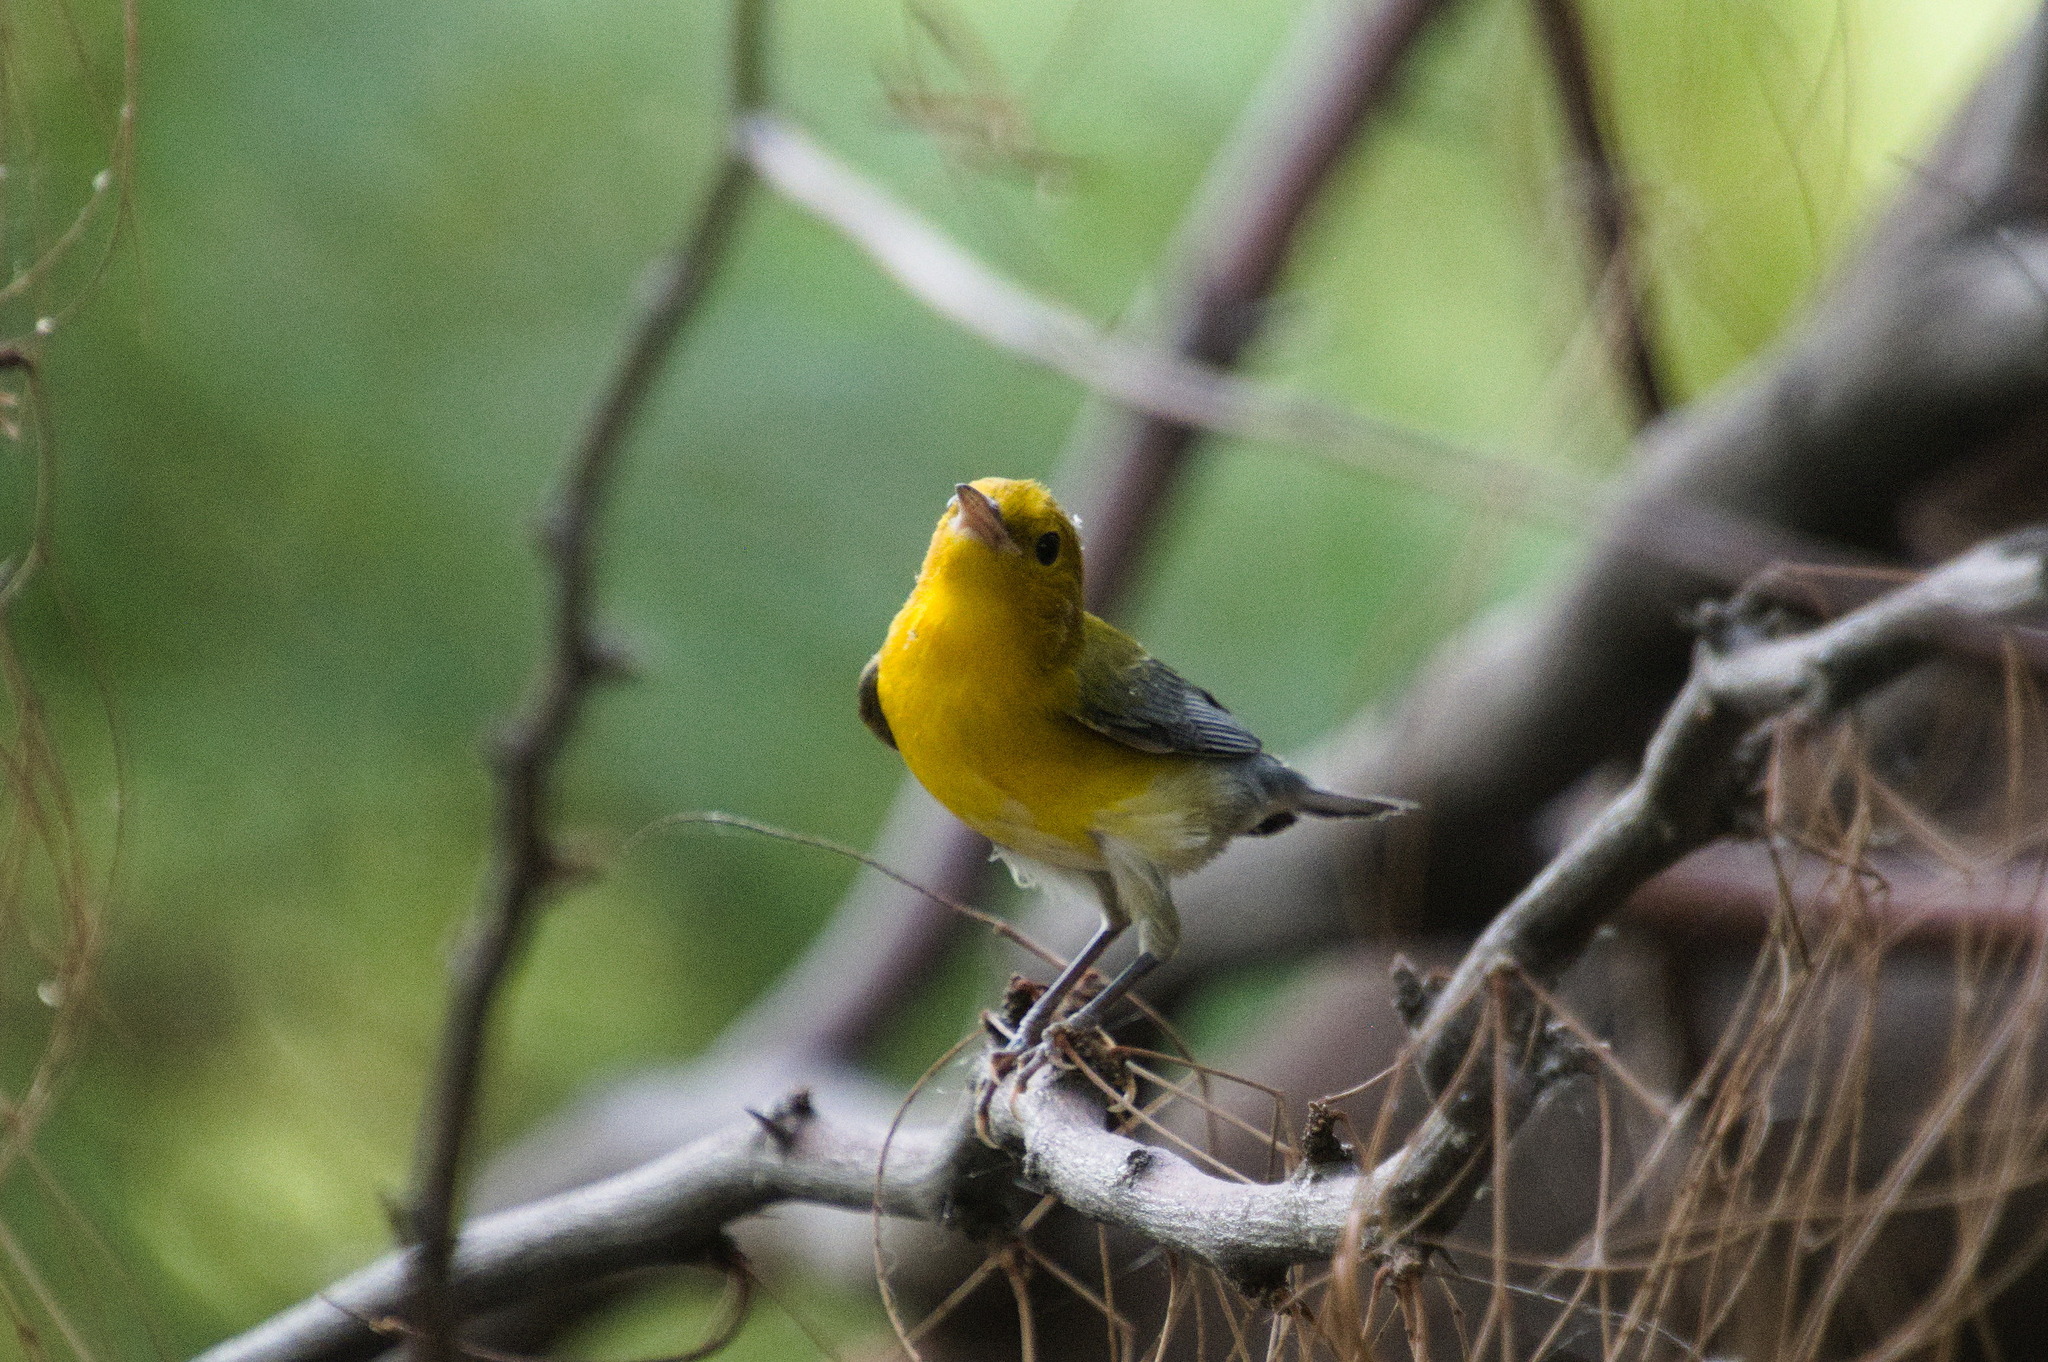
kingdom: Animalia
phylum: Chordata
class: Aves
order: Passeriformes
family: Parulidae
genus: Protonotaria
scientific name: Protonotaria citrea
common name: Prothonotary warbler
